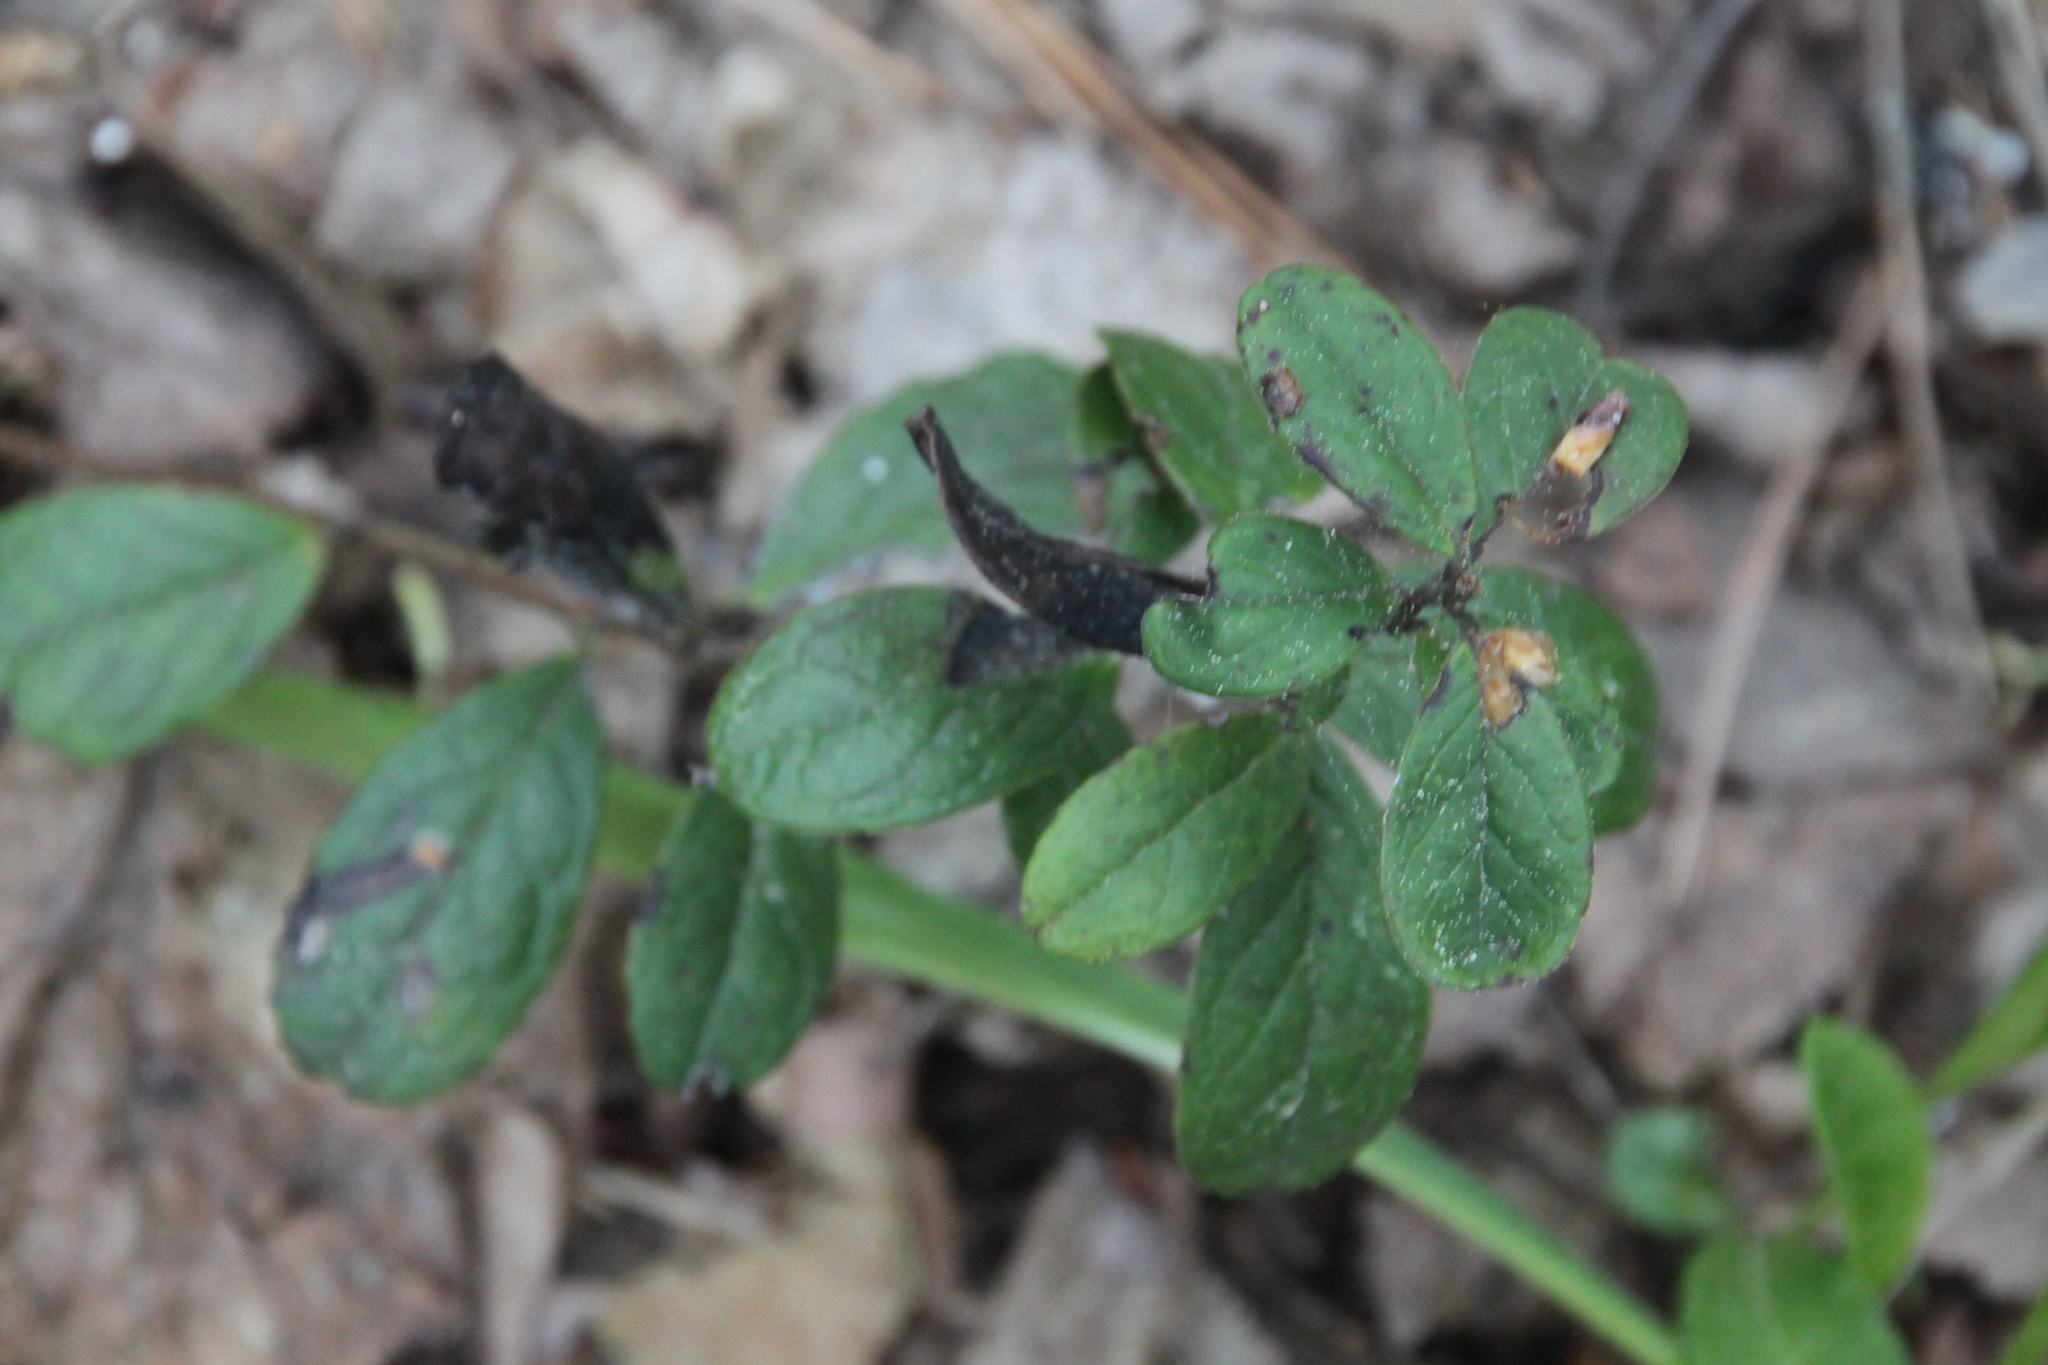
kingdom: Plantae
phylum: Tracheophyta
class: Magnoliopsida
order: Ericales
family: Ericaceae
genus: Vaccinium
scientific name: Vaccinium vitis-idaea
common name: Cowberry
